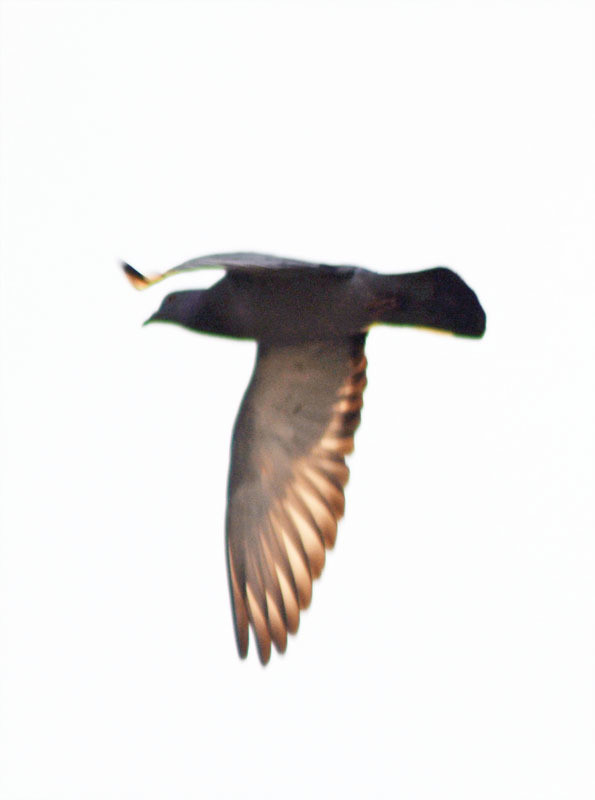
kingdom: Animalia
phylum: Chordata
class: Aves
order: Columbiformes
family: Columbidae
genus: Columba
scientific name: Columba livia
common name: Rock pigeon
